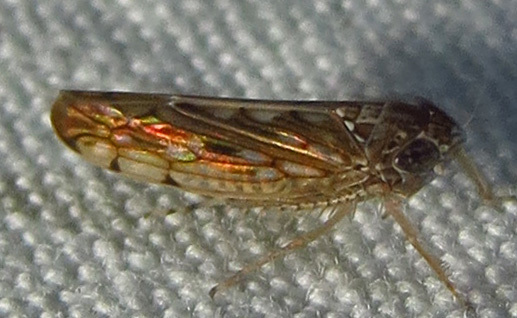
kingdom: Animalia
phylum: Arthropoda
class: Insecta
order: Hemiptera
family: Cicadellidae
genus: Osbornellus
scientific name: Osbornellus clarus
